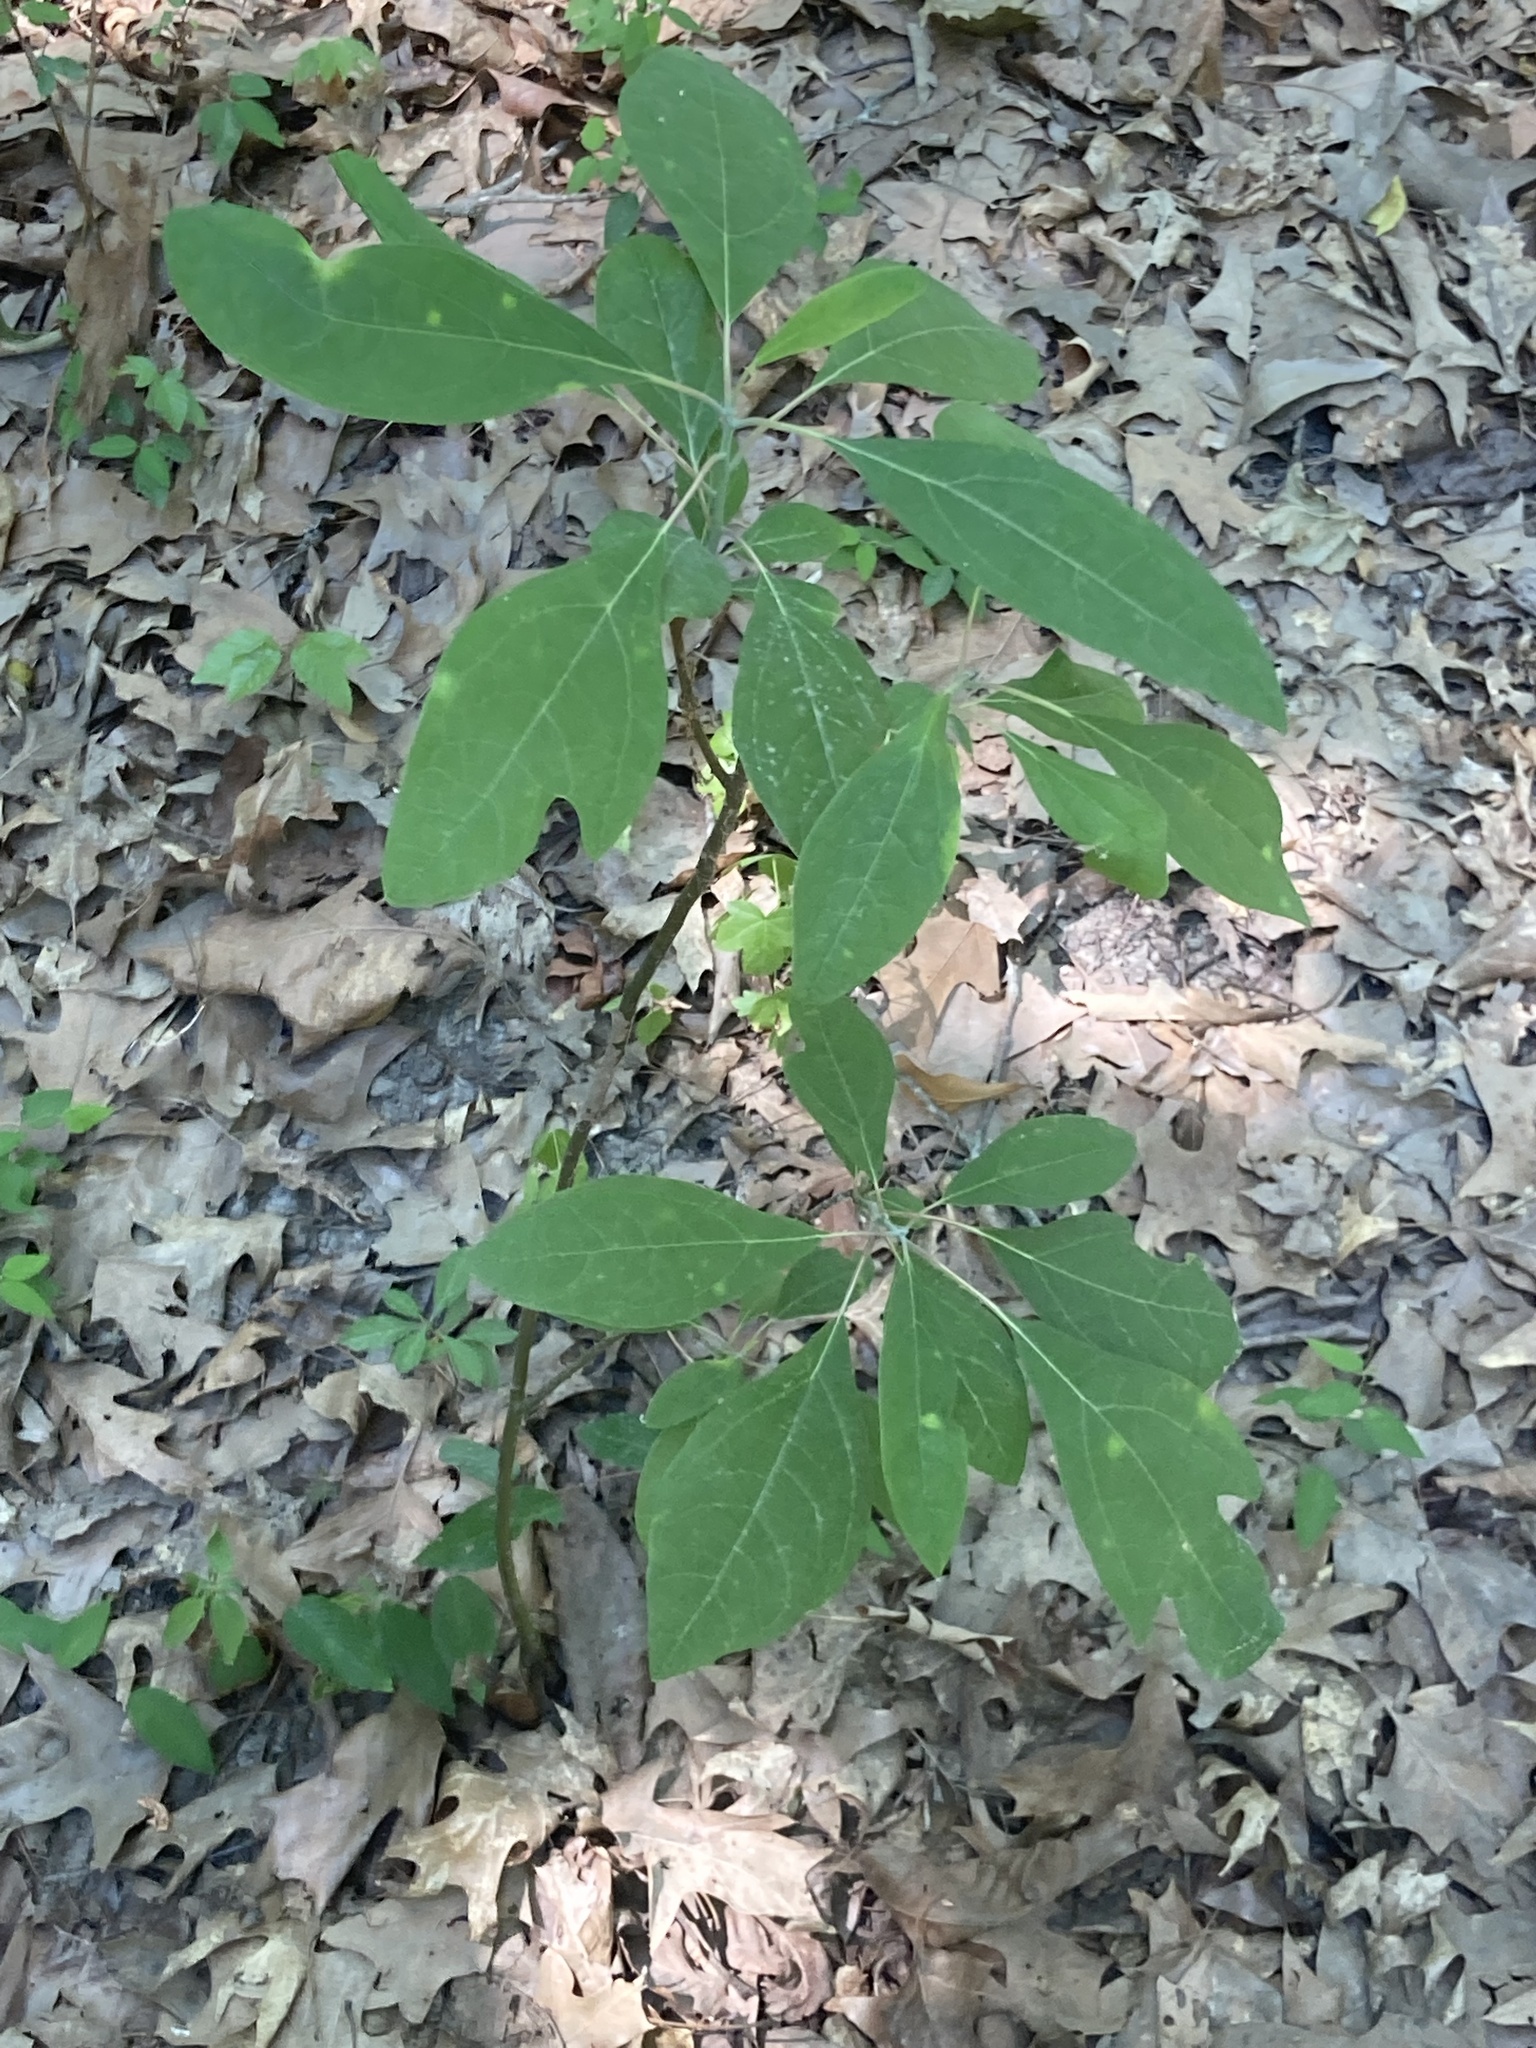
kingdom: Plantae
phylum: Tracheophyta
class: Magnoliopsida
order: Laurales
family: Lauraceae
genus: Sassafras
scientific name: Sassafras albidum
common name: Sassafras
